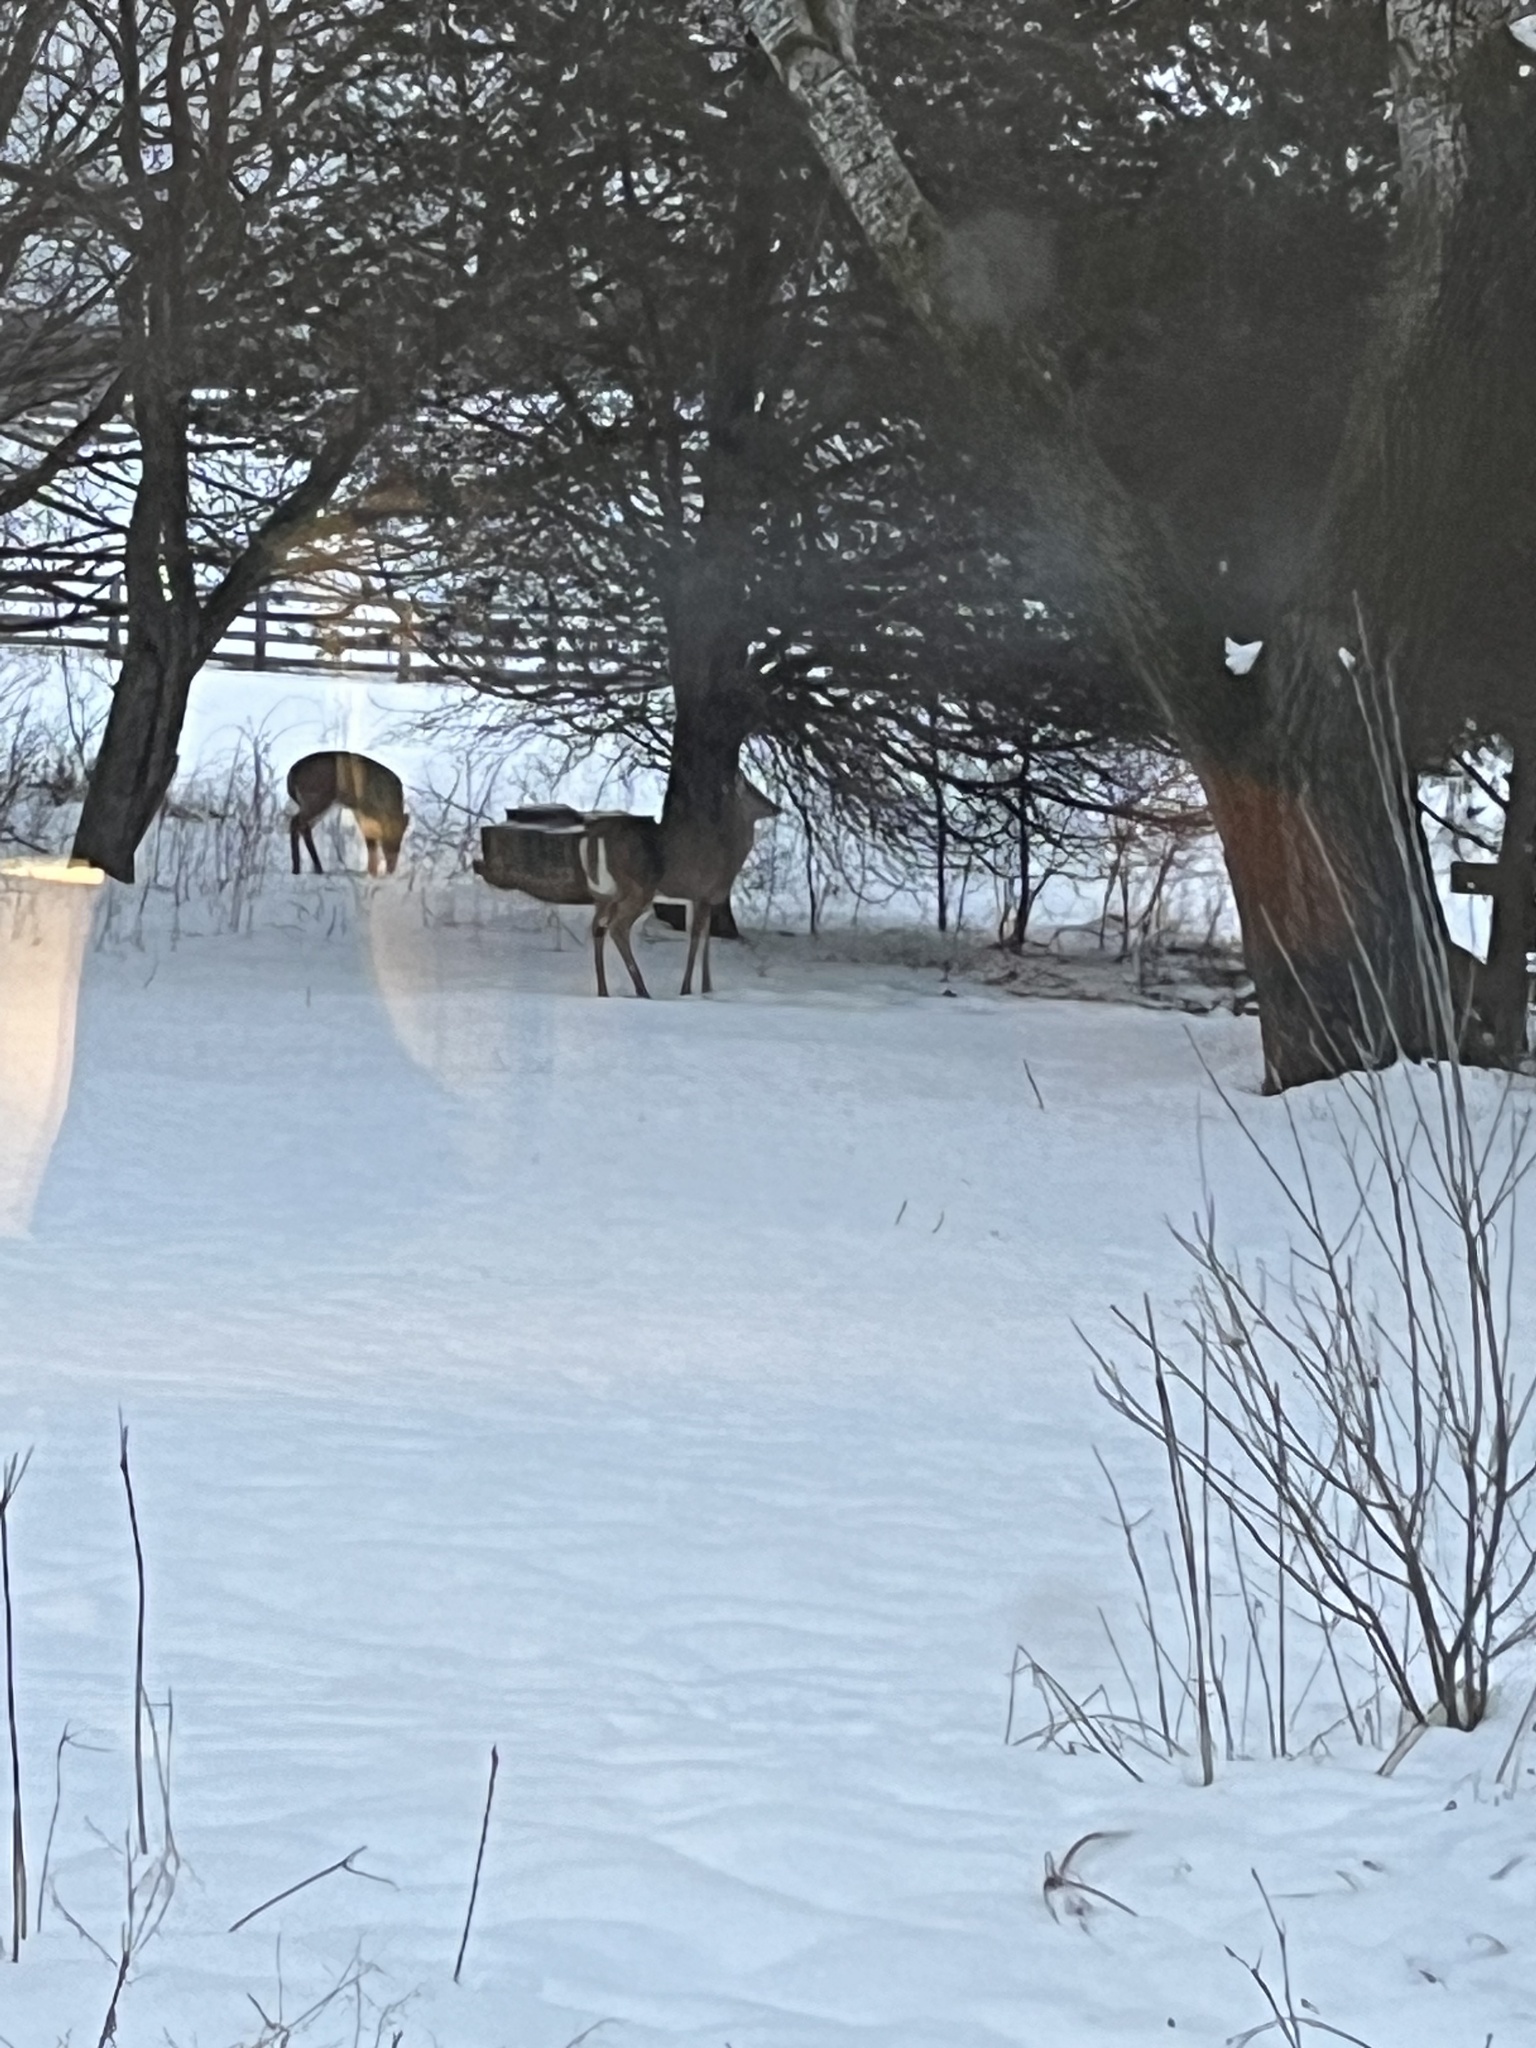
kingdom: Animalia
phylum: Chordata
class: Mammalia
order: Artiodactyla
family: Cervidae
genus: Odocoileus
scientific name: Odocoileus virginianus
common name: White-tailed deer
